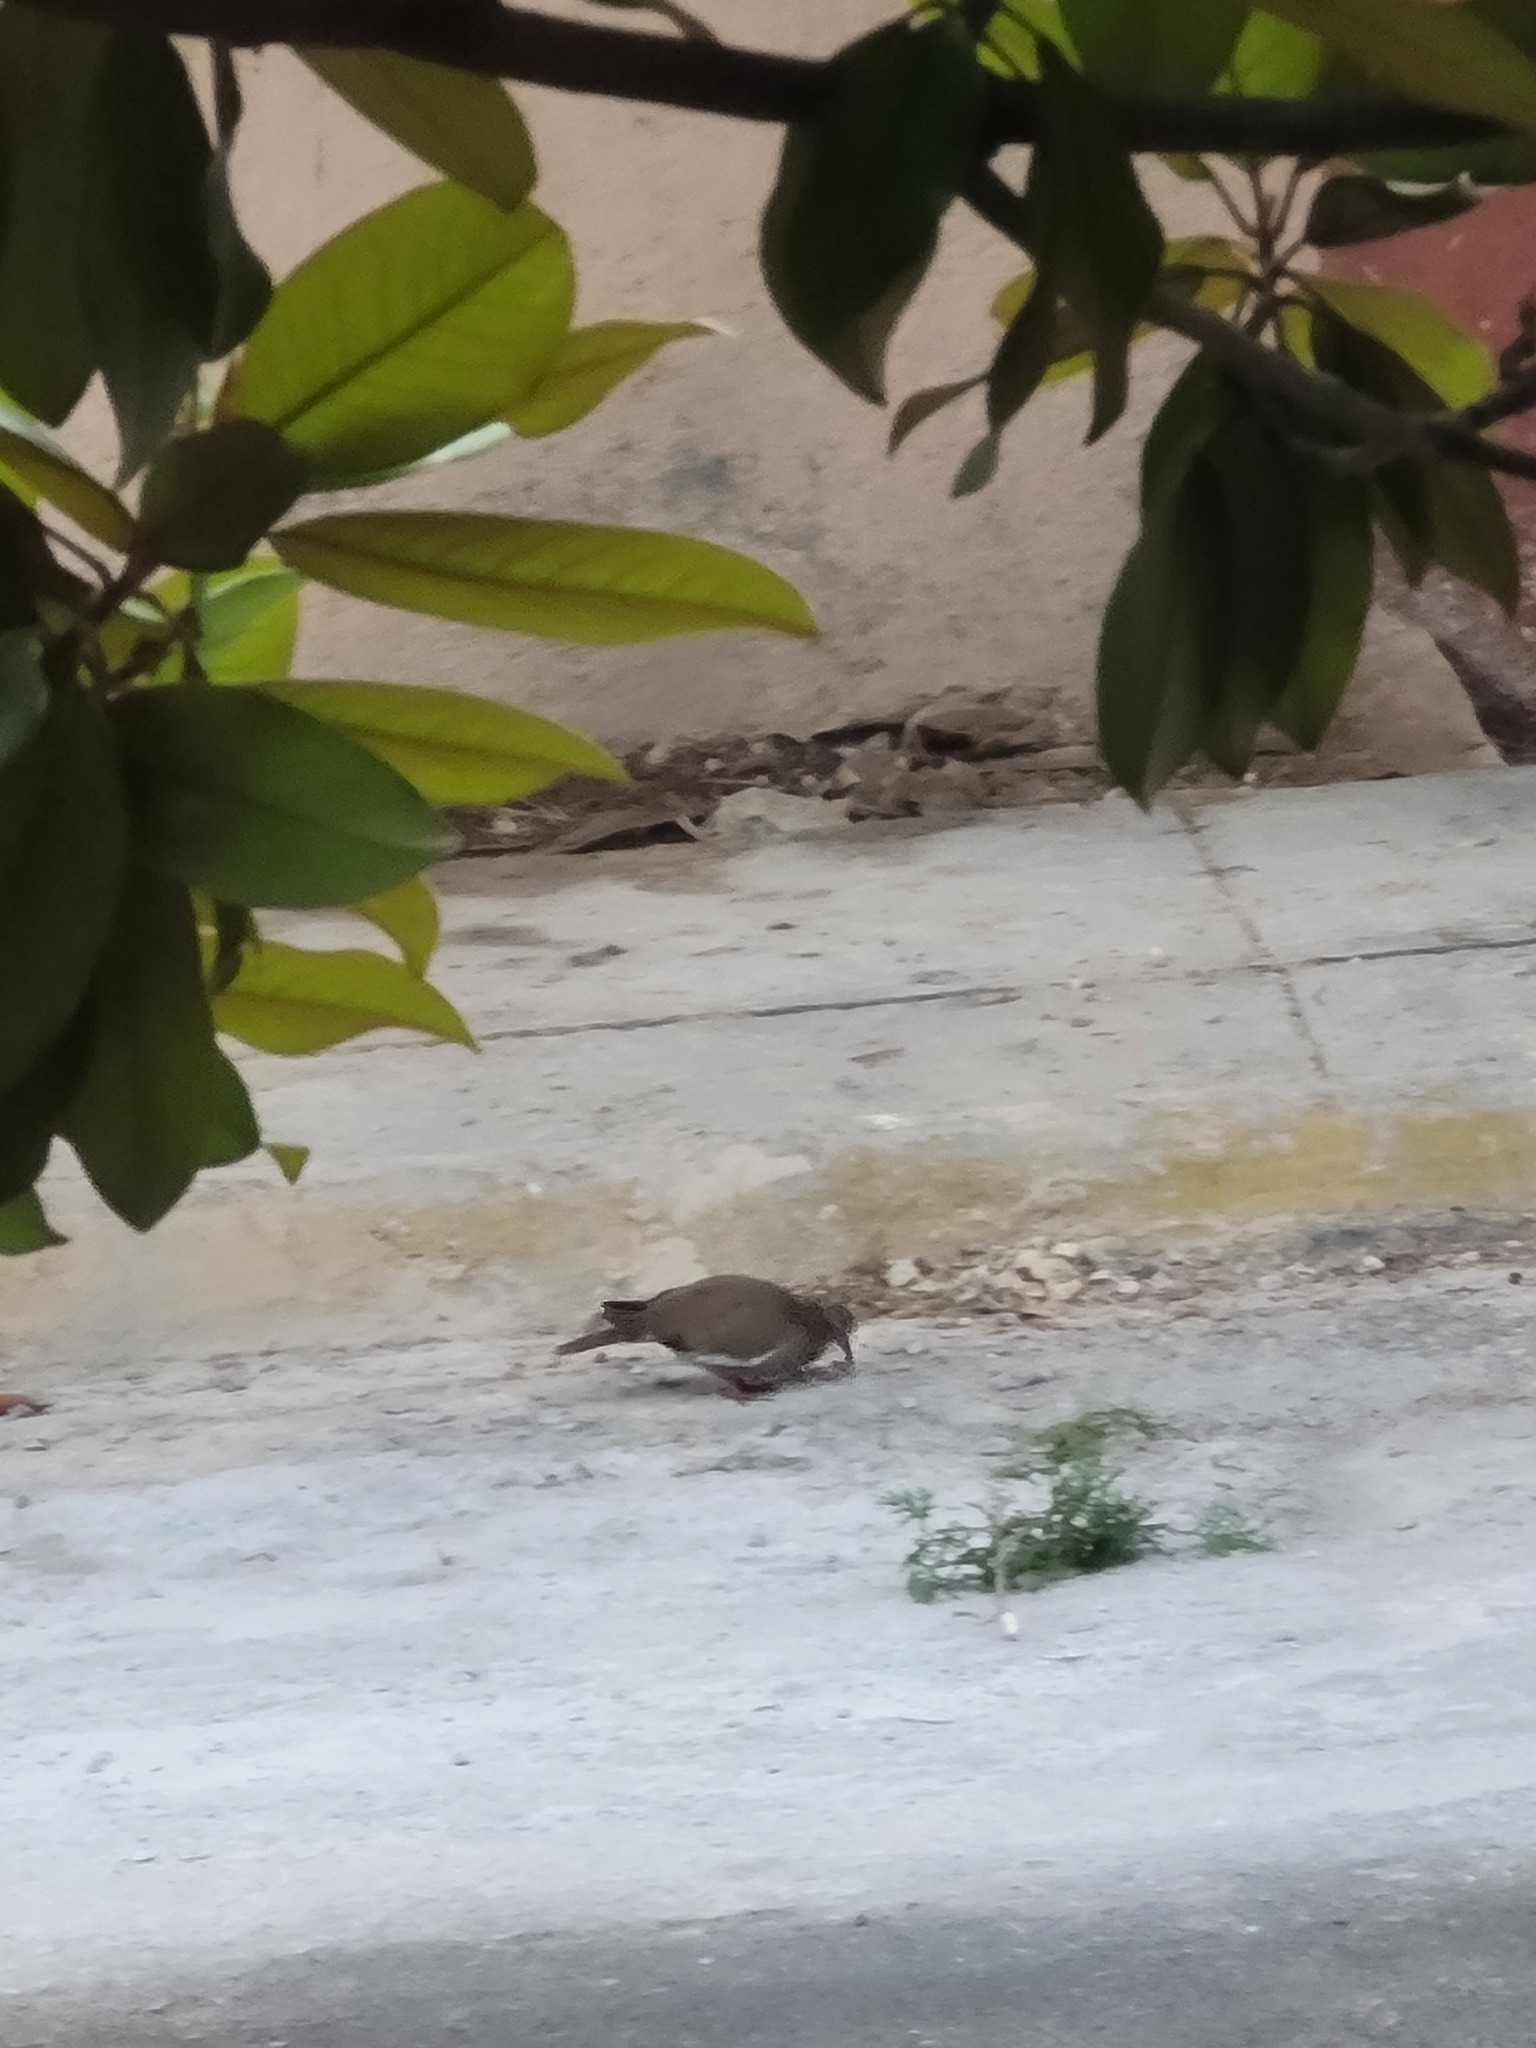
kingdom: Animalia
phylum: Chordata
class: Aves
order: Columbiformes
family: Columbidae
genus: Zenaida
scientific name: Zenaida asiatica
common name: White-winged dove
